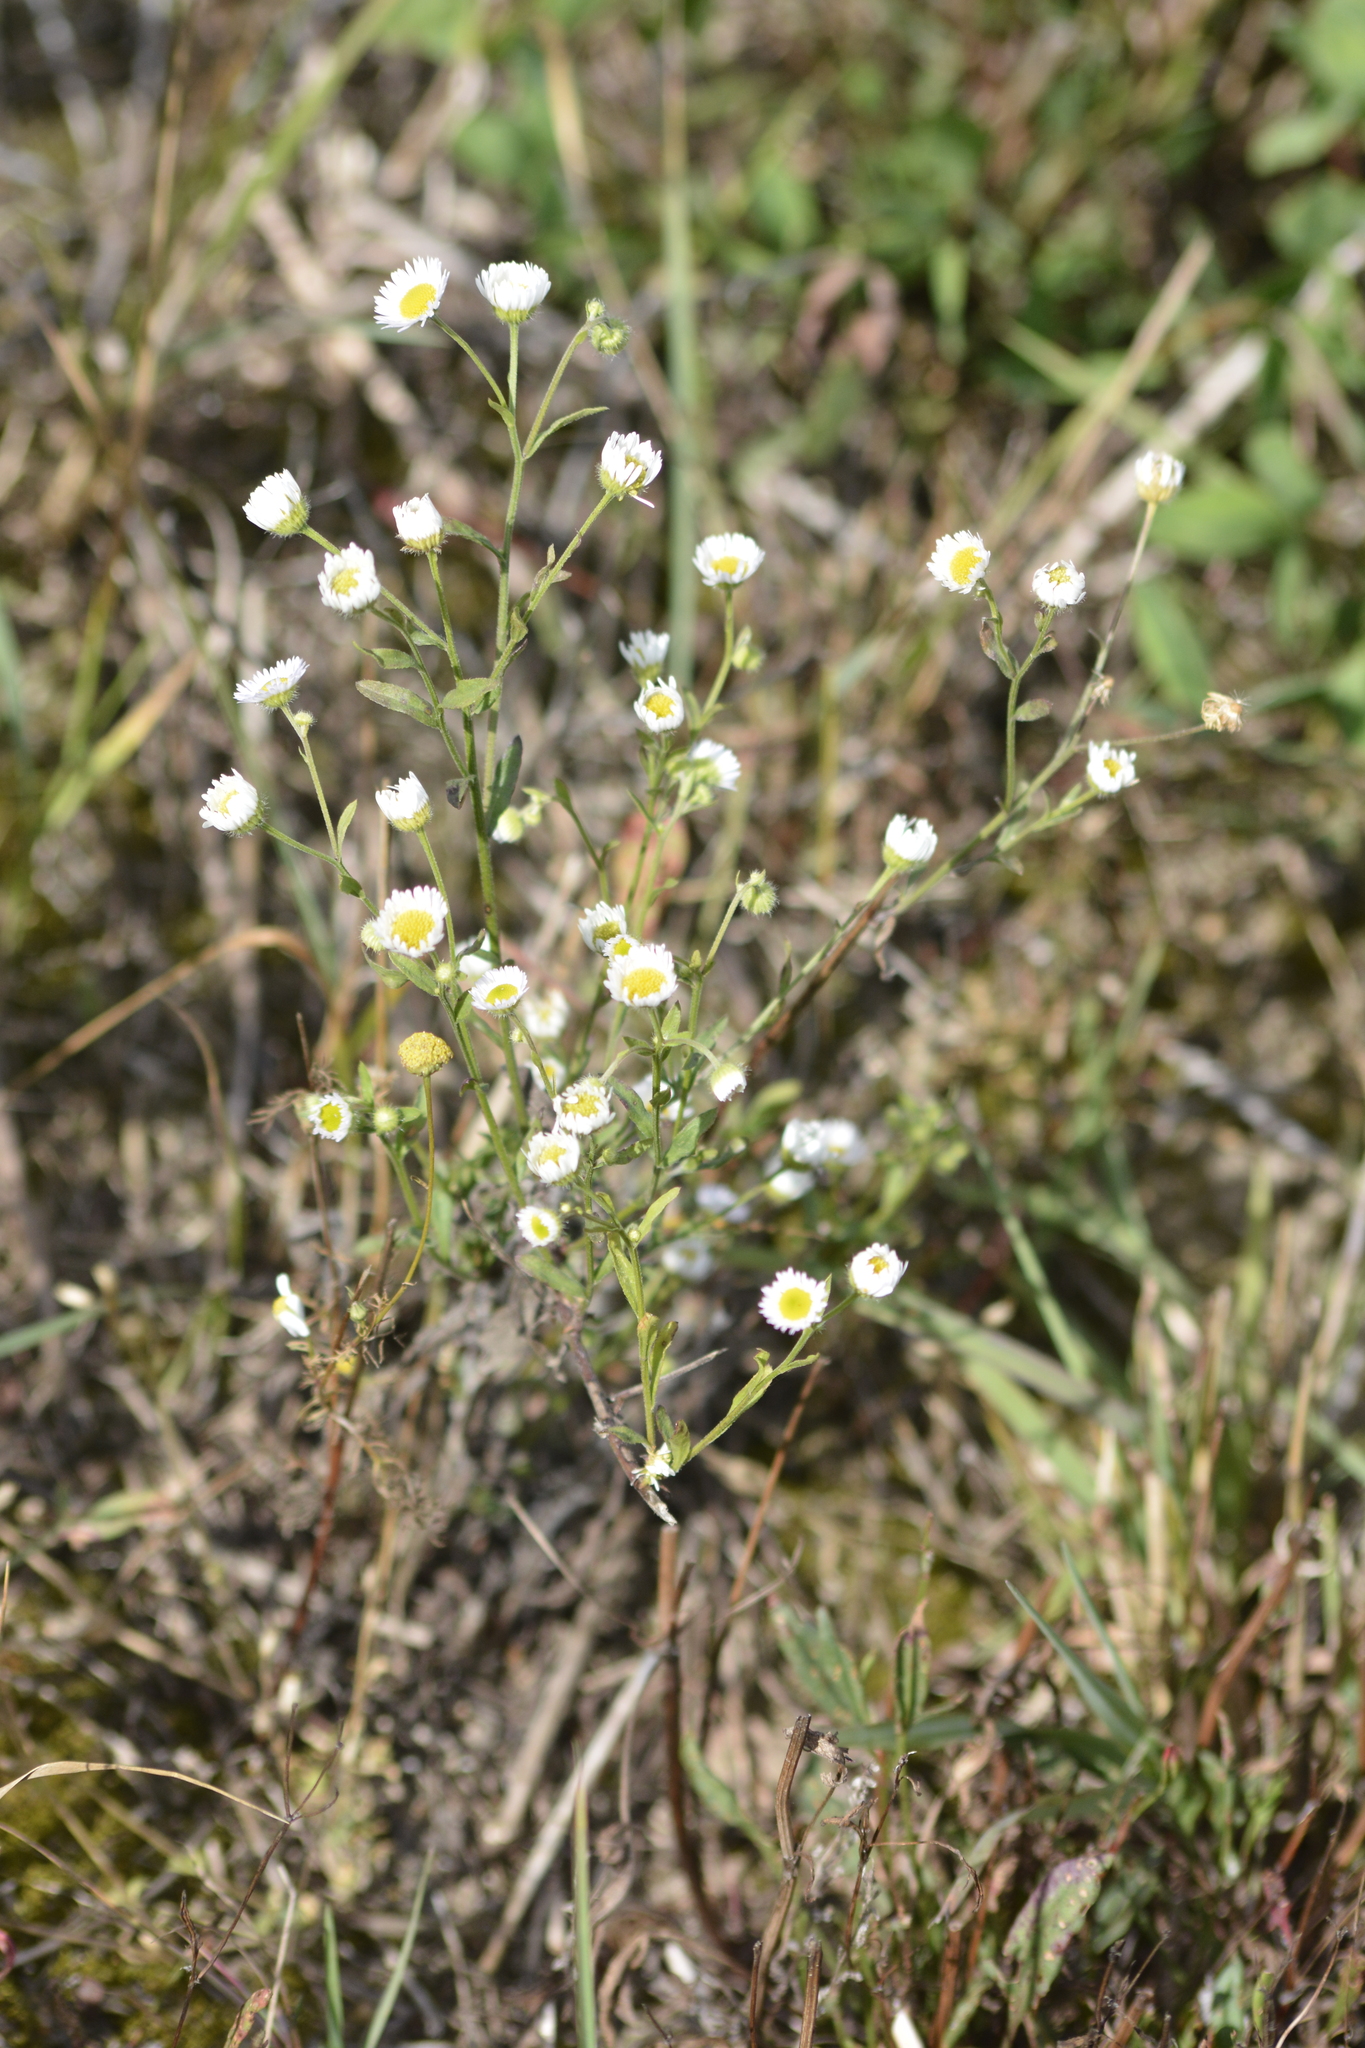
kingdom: Plantae
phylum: Tracheophyta
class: Magnoliopsida
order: Asterales
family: Asteraceae
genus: Erigeron
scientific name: Erigeron annuus
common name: Tall fleabane
